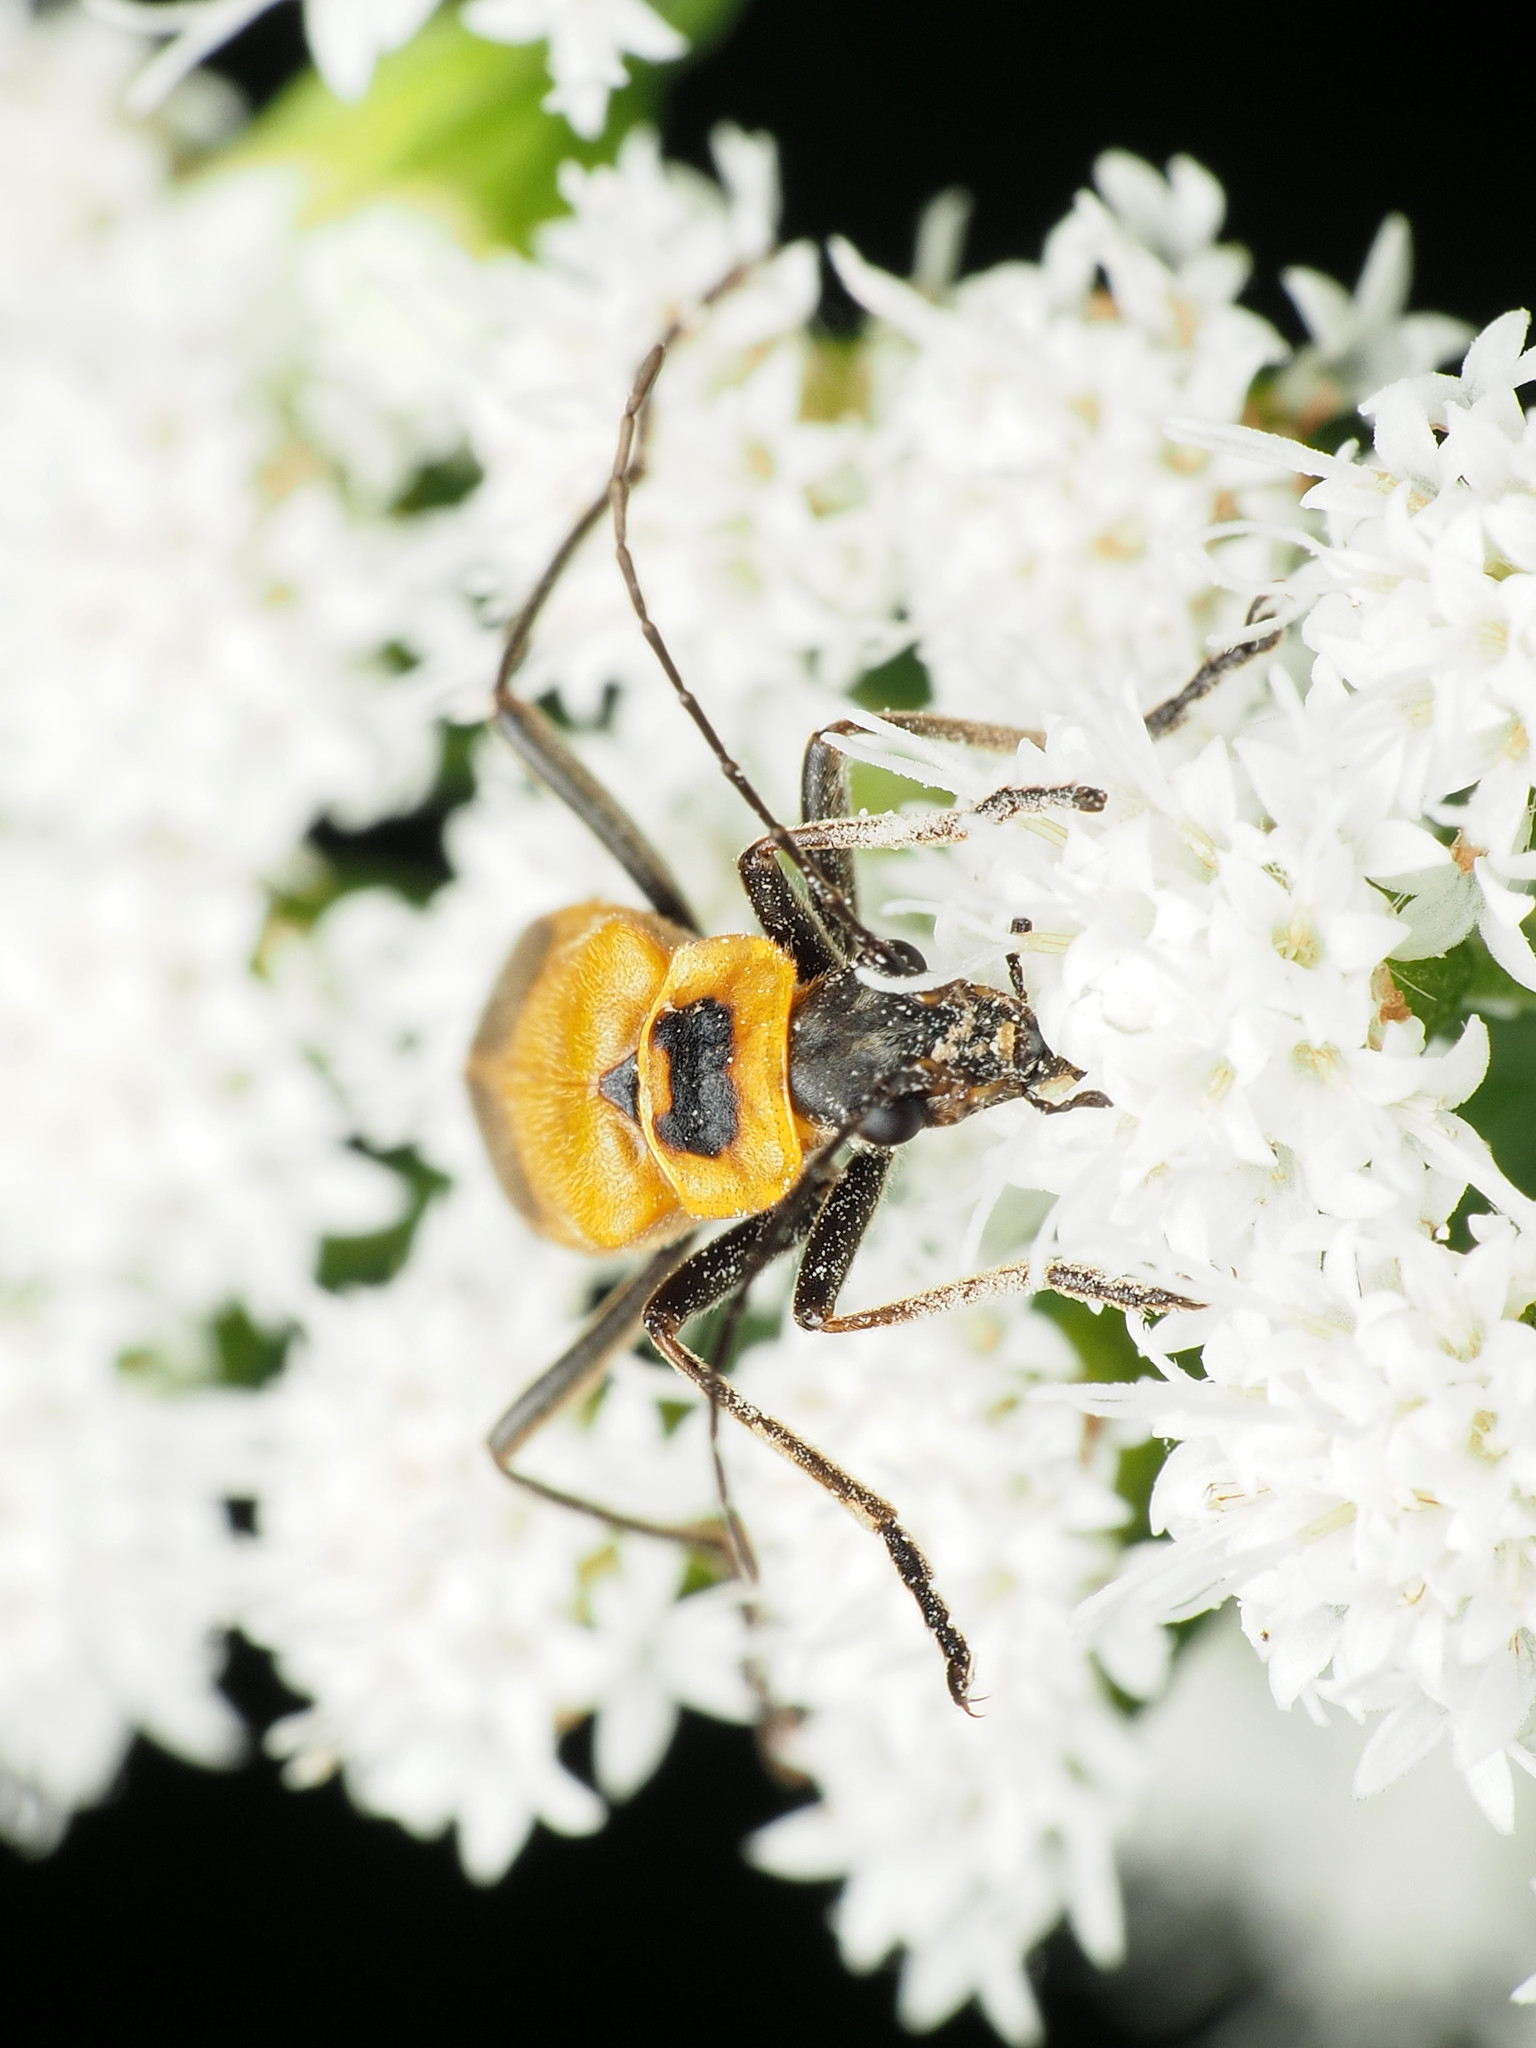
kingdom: Animalia
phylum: Arthropoda
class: Insecta
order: Coleoptera
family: Cantharidae
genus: Chauliognathus
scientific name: Chauliognathus pensylvanicus
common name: Goldenrod soldier beetle
